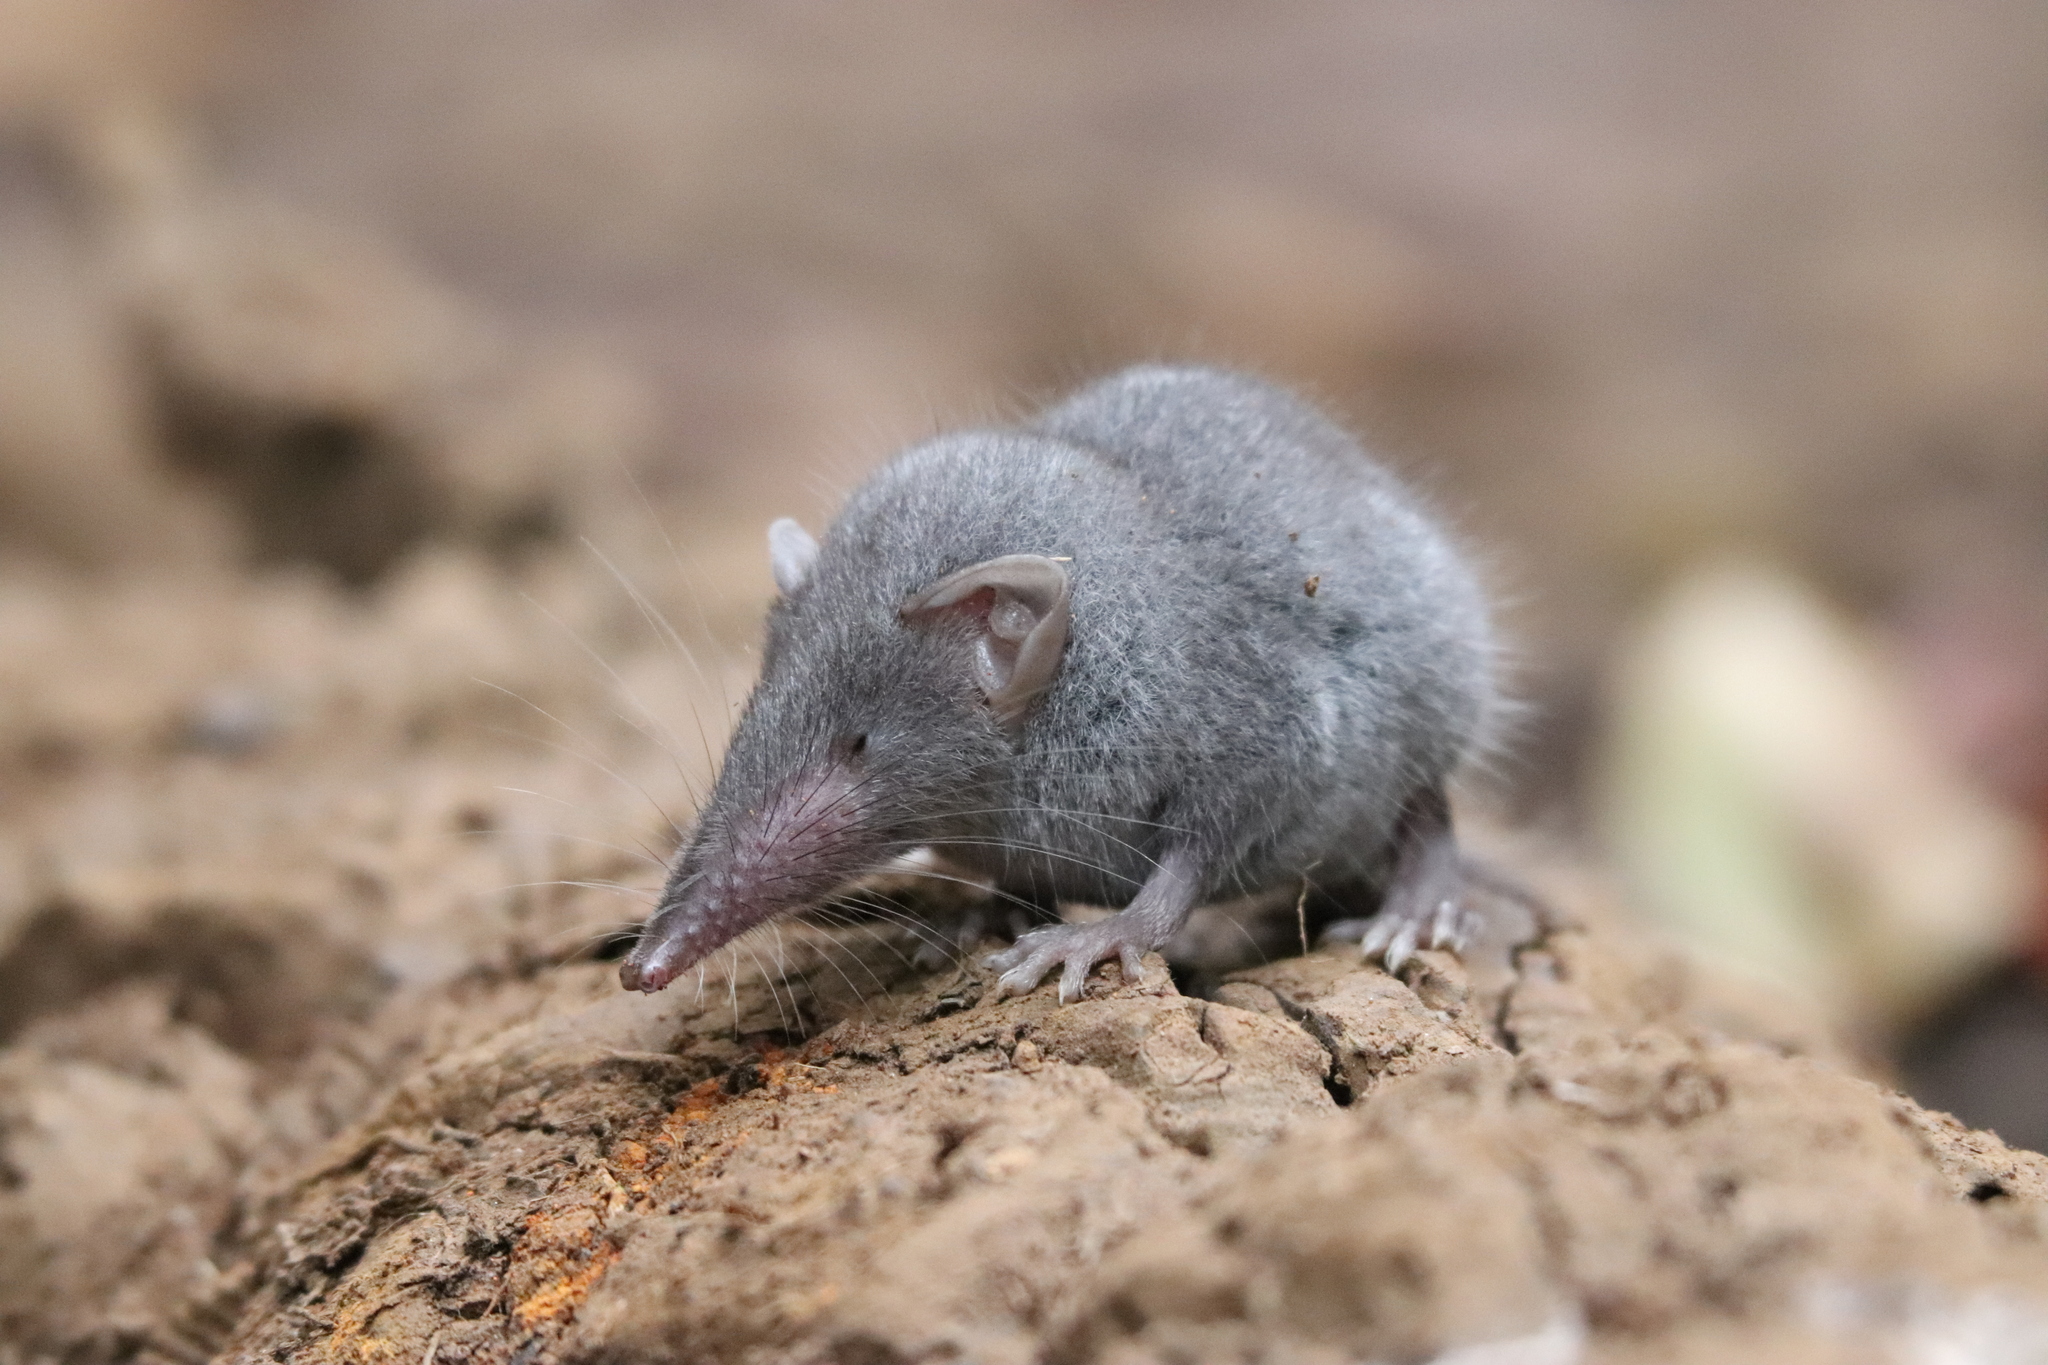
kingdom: Animalia
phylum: Chordata
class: Mammalia
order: Soricomorpha
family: Soricidae
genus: Suncus
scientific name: Suncus murinus
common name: Asian house shrew
